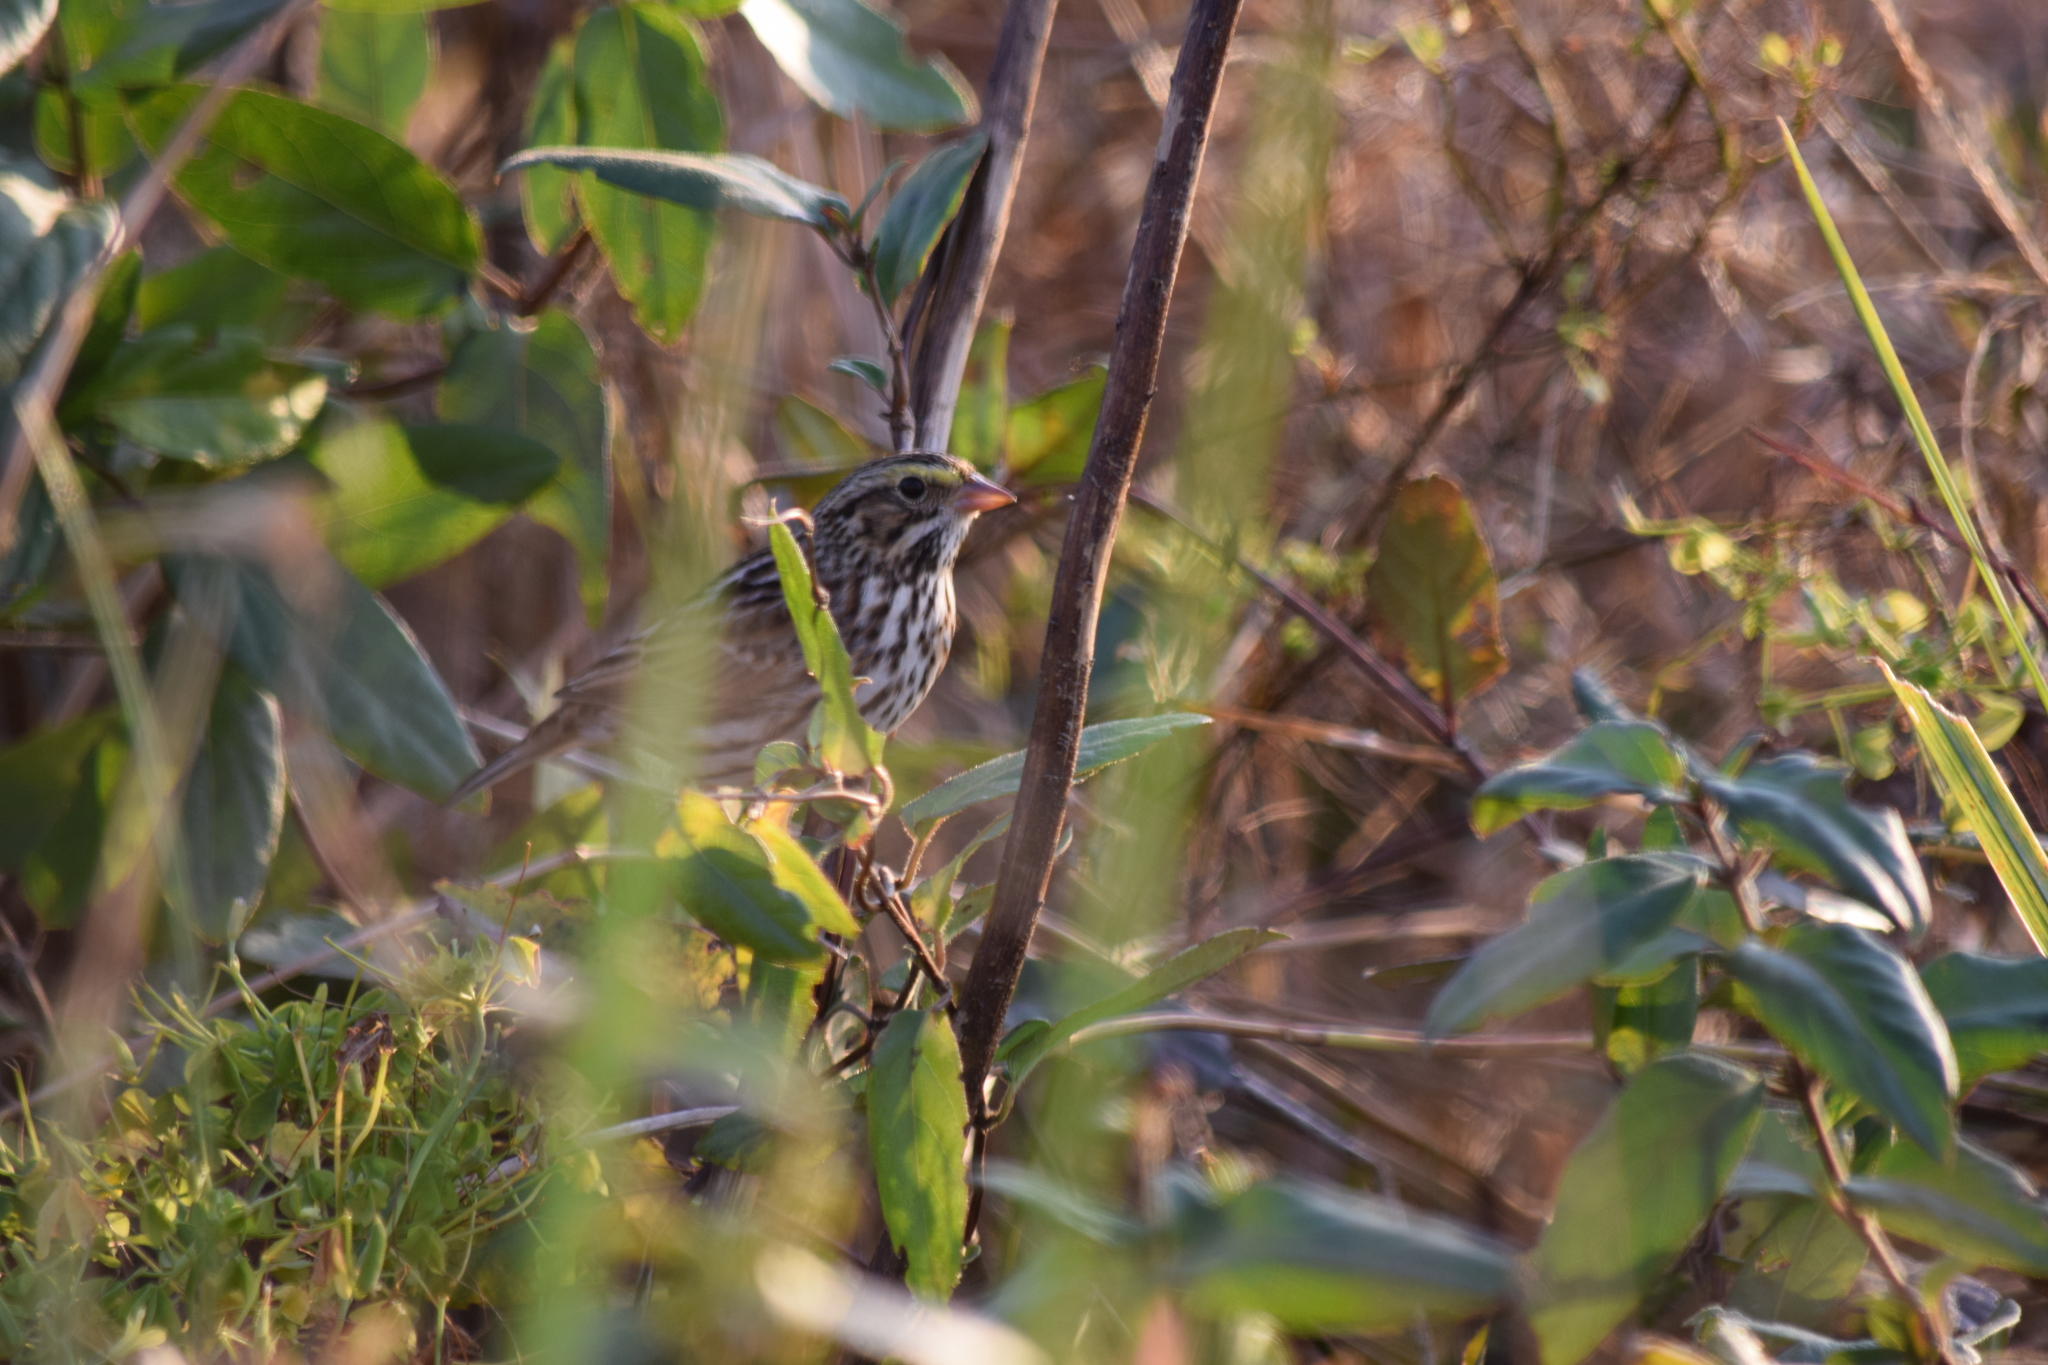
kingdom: Animalia
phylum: Chordata
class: Aves
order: Passeriformes
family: Passerellidae
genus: Passerculus
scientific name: Passerculus sandwichensis
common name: Savannah sparrow
